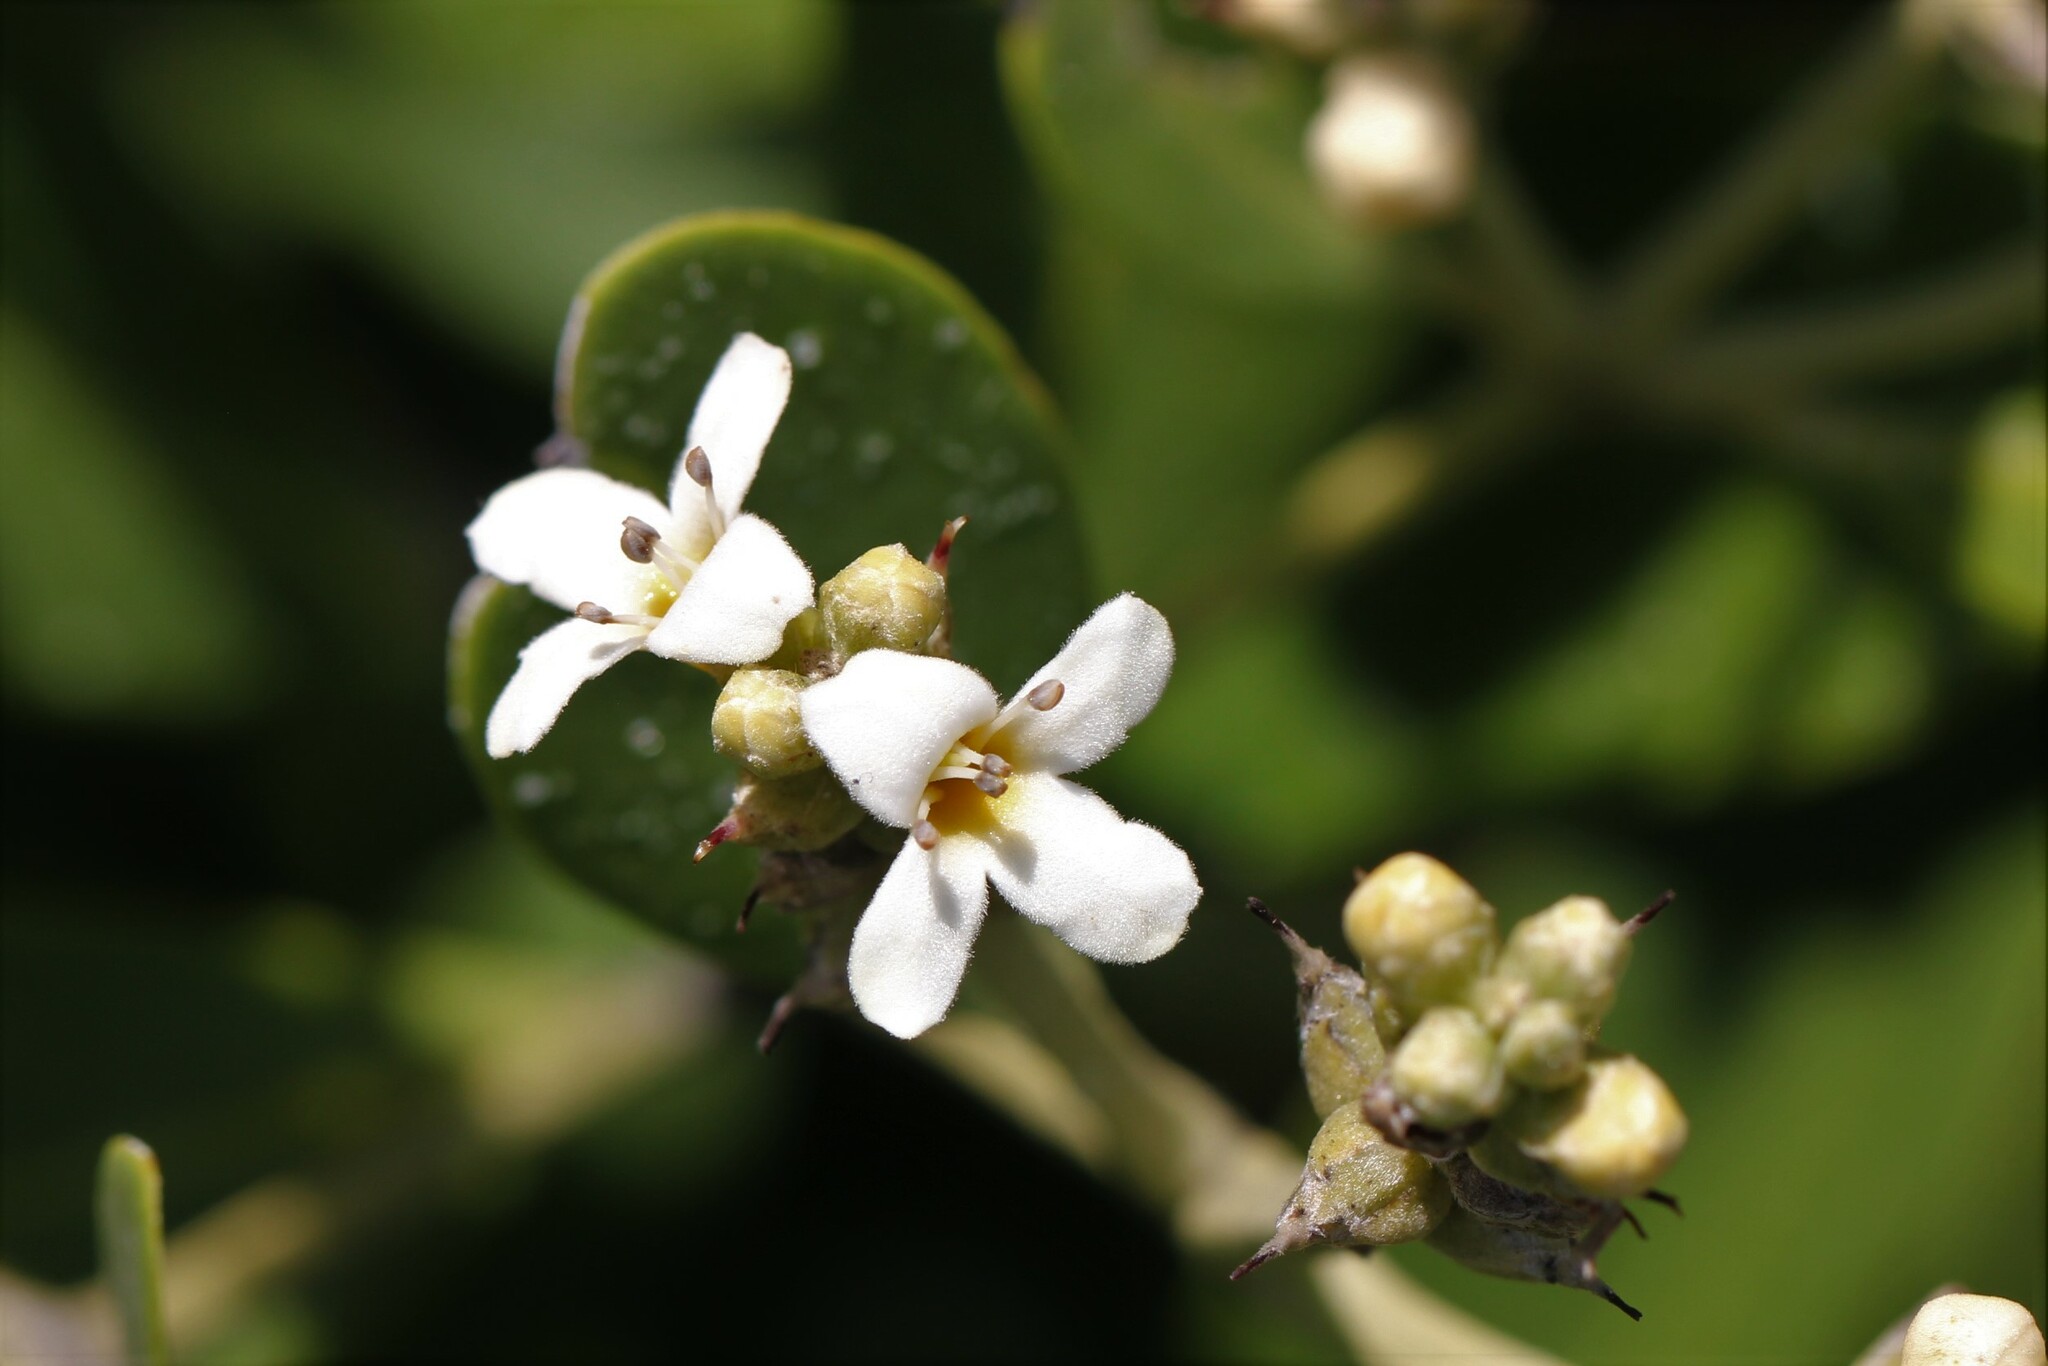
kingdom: Plantae
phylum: Tracheophyta
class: Magnoliopsida
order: Lamiales
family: Acanthaceae
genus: Avicennia
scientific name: Avicennia germinans
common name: Black mangrove
